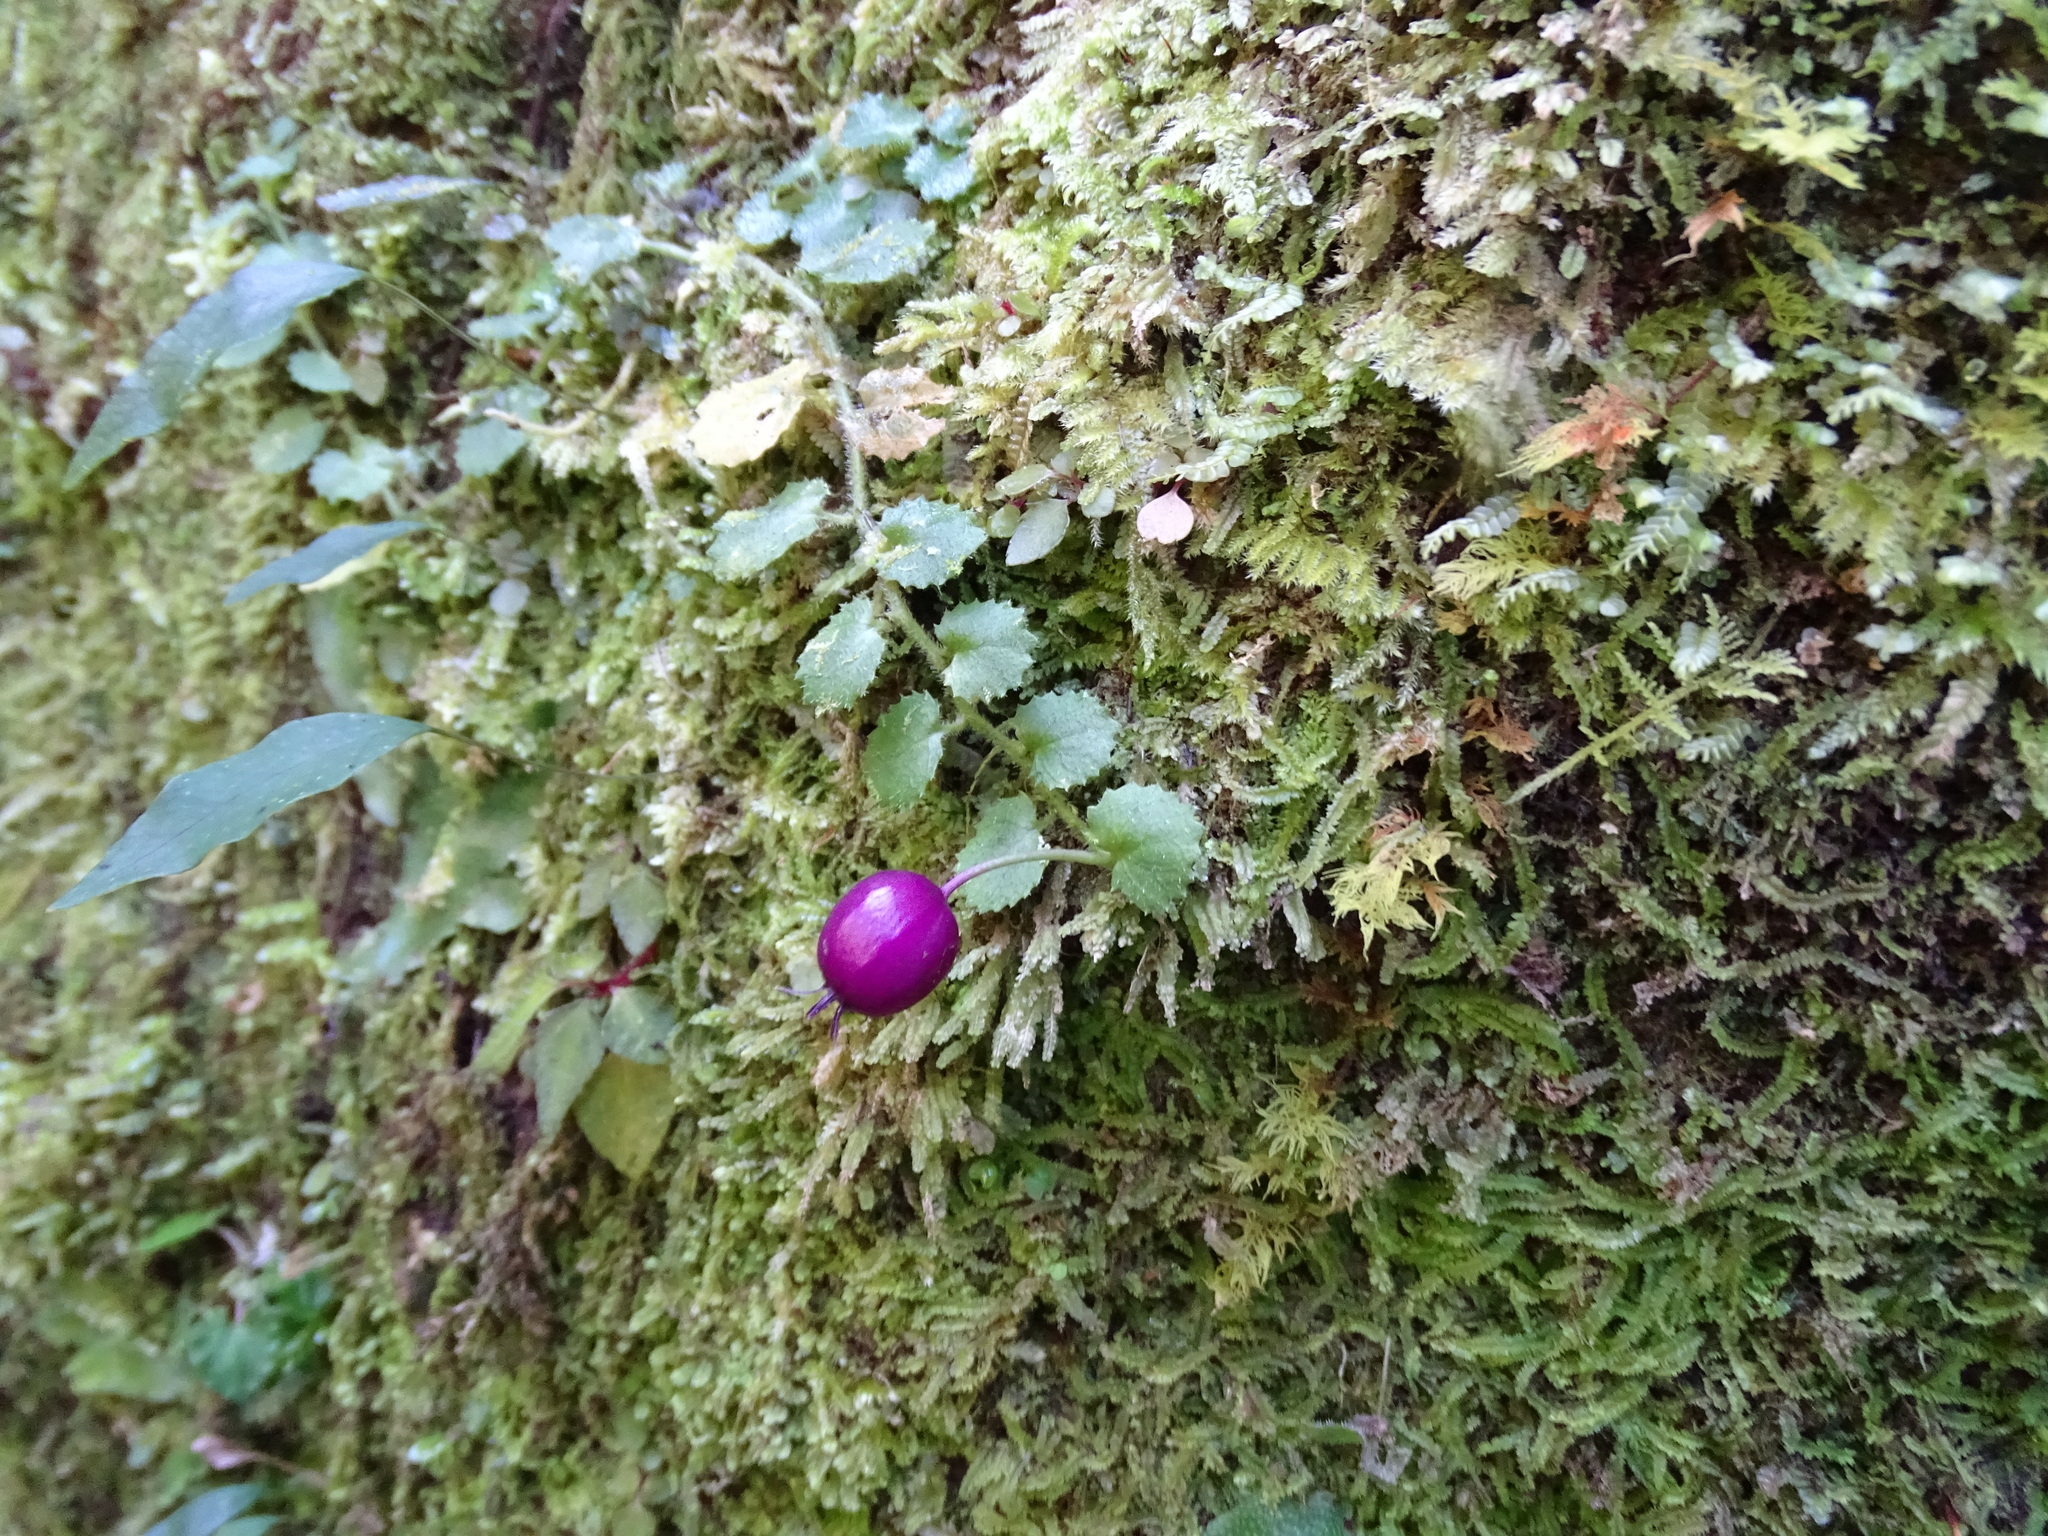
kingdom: Plantae
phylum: Tracheophyta
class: Magnoliopsida
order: Asterales
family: Campanulaceae
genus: Lobelia
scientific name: Lobelia nummularia
